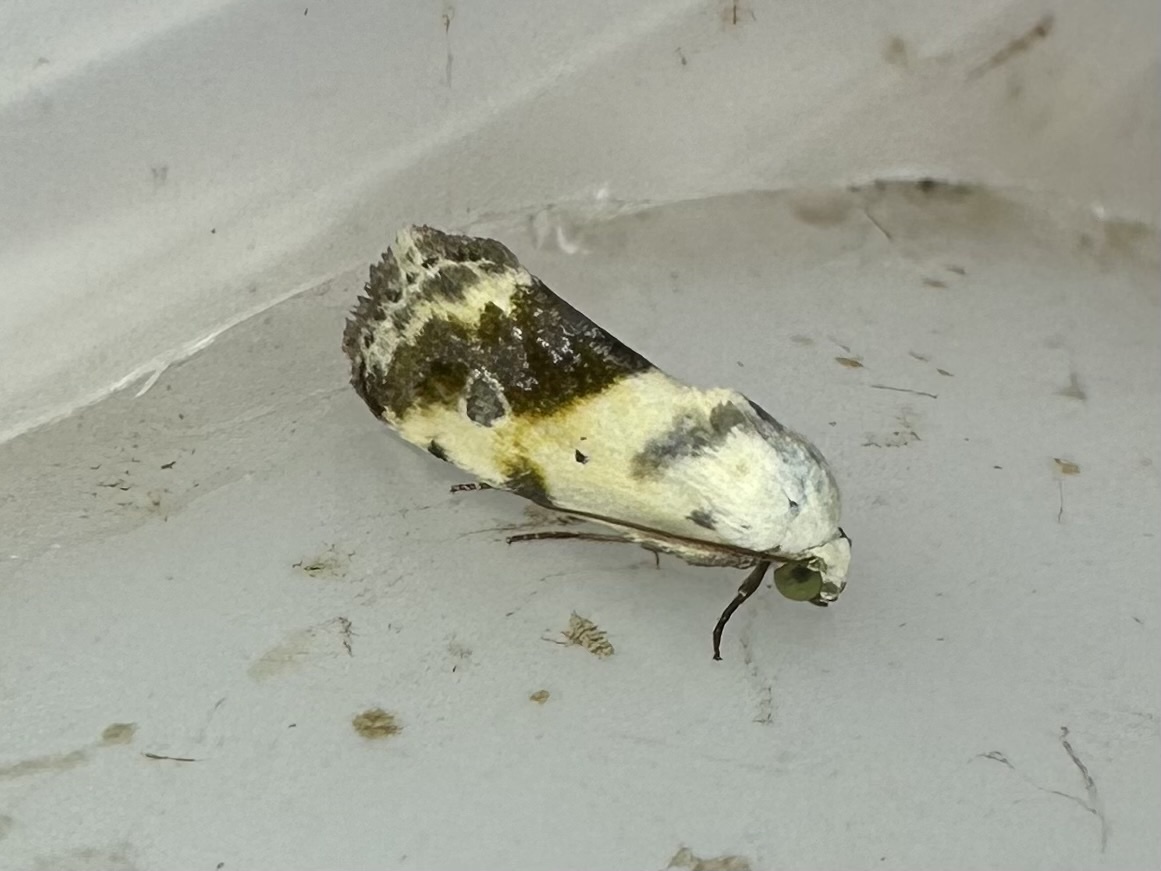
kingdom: Animalia
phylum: Arthropoda
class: Insecta
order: Lepidoptera
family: Noctuidae
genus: Acontia
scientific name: Acontia candefacta
